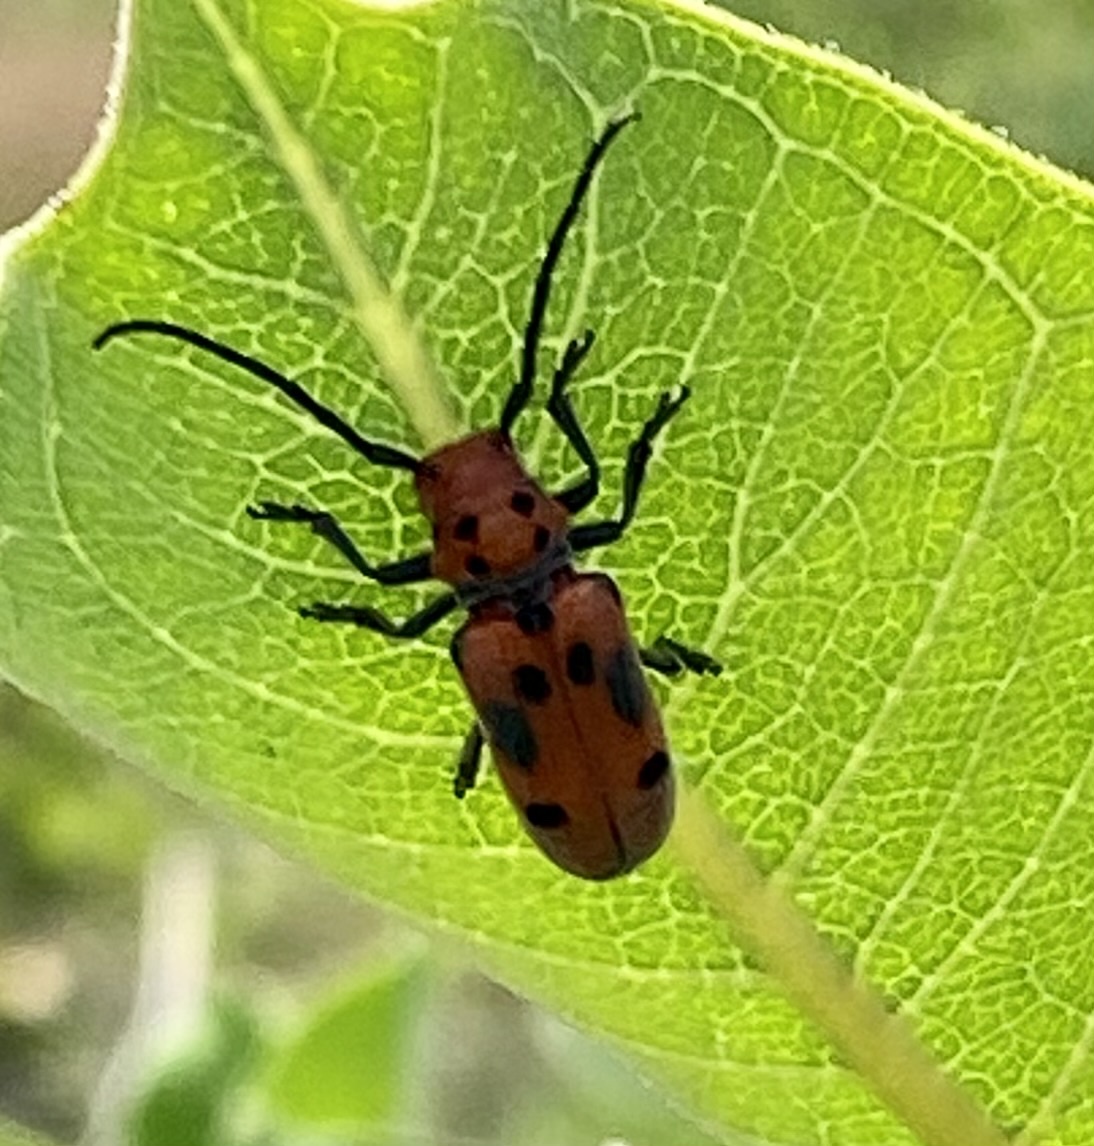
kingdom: Animalia
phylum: Arthropoda
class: Insecta
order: Coleoptera
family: Cerambycidae
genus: Tetraopes
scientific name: Tetraopes tetrophthalmus
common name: Red milkweed beetle
